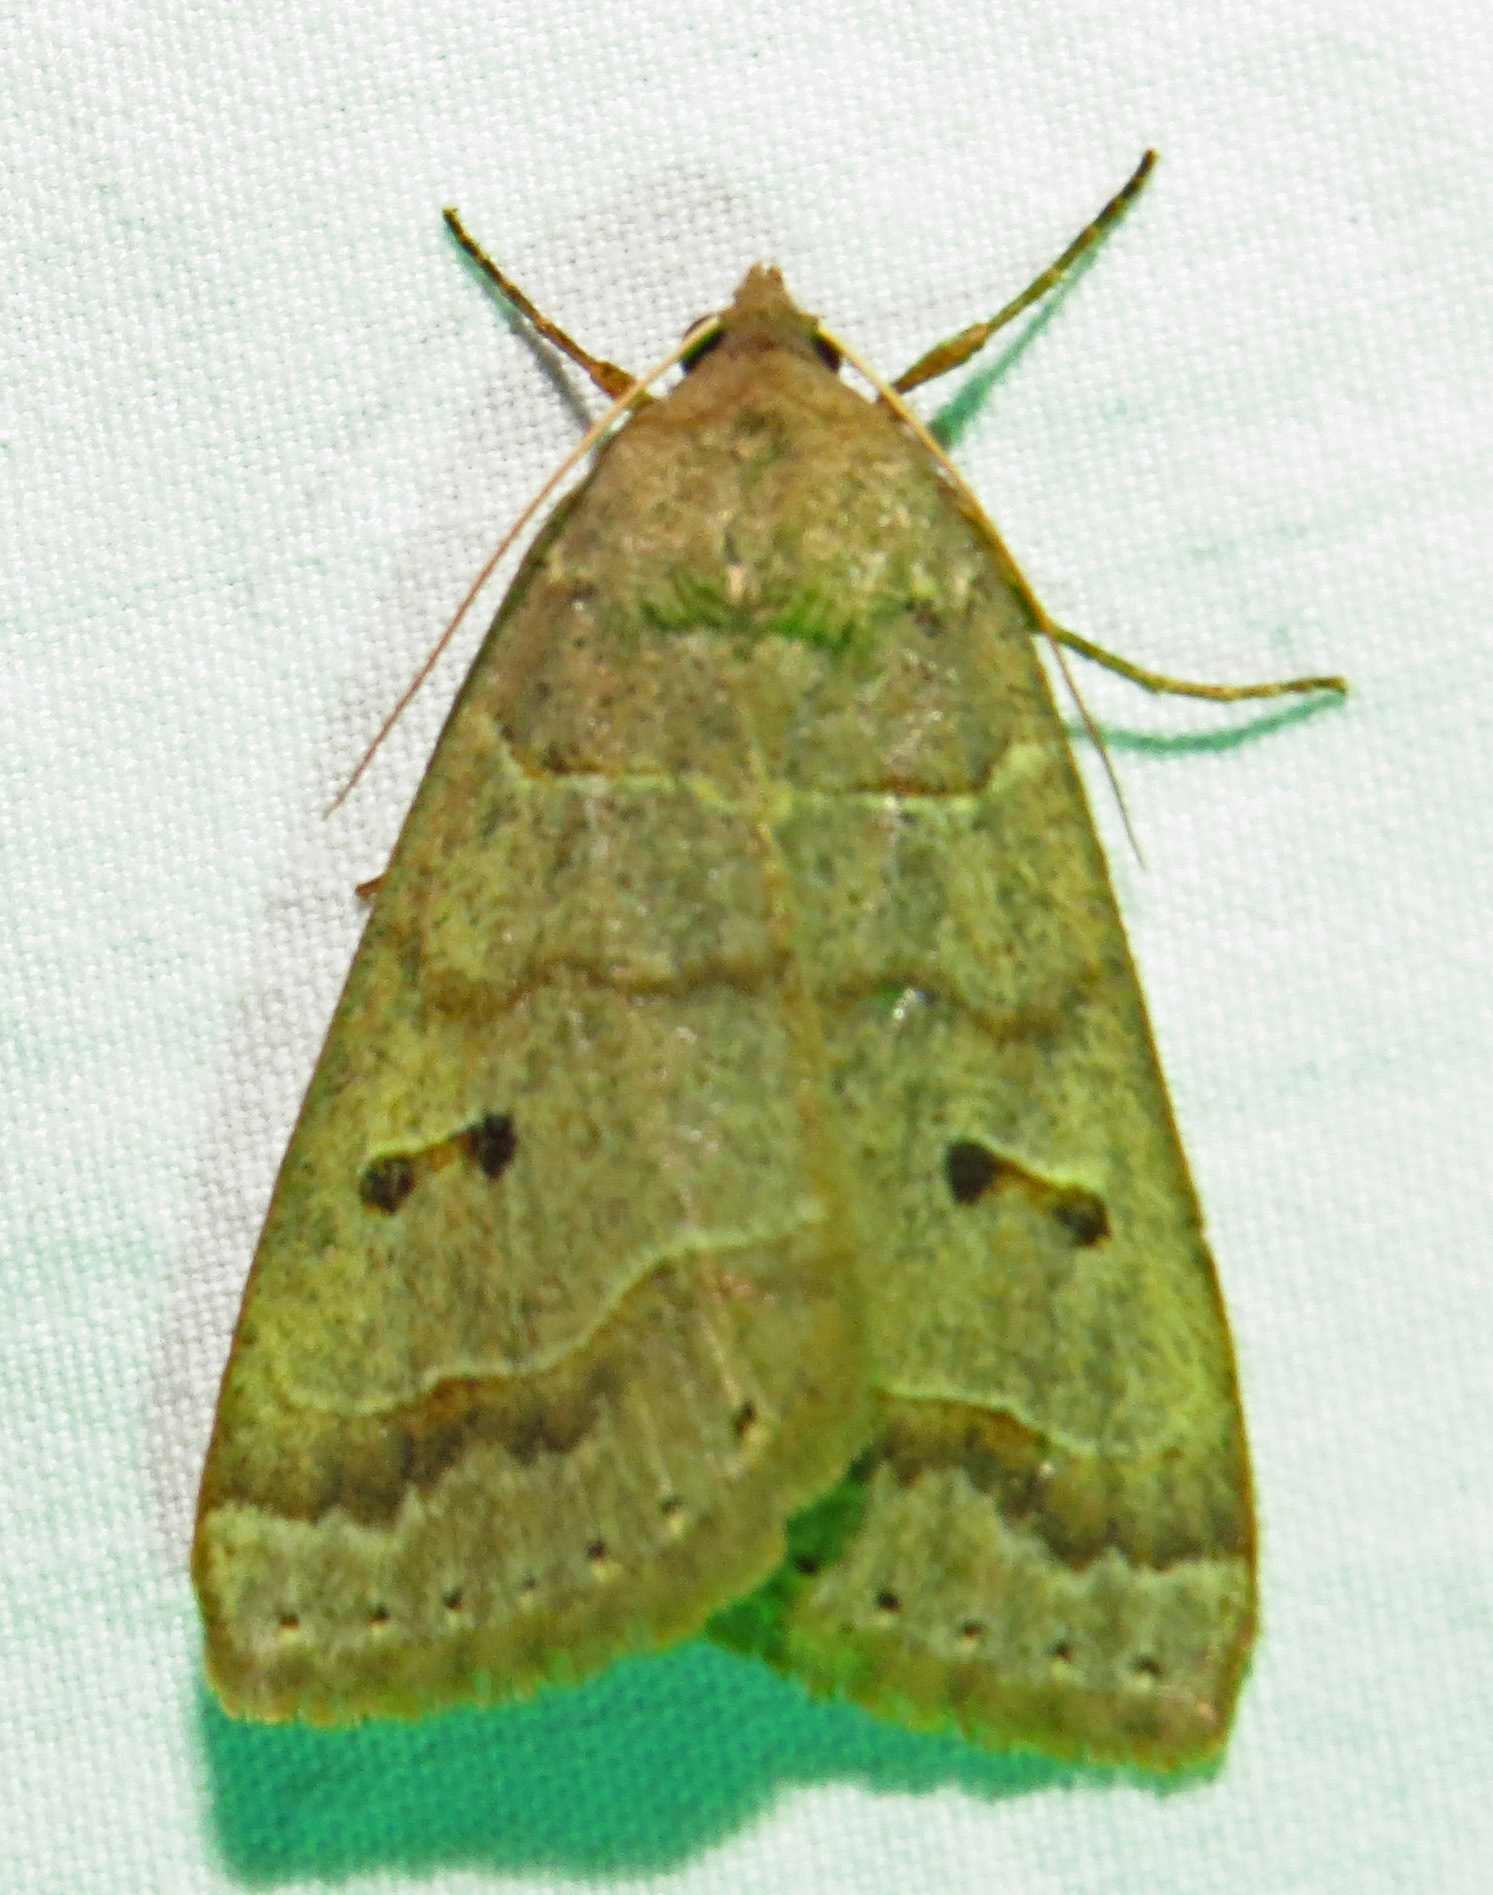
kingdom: Animalia
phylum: Arthropoda
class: Insecta
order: Lepidoptera
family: Erebidae
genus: Phoberia
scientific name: Phoberia atomaris
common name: Common oak moth
